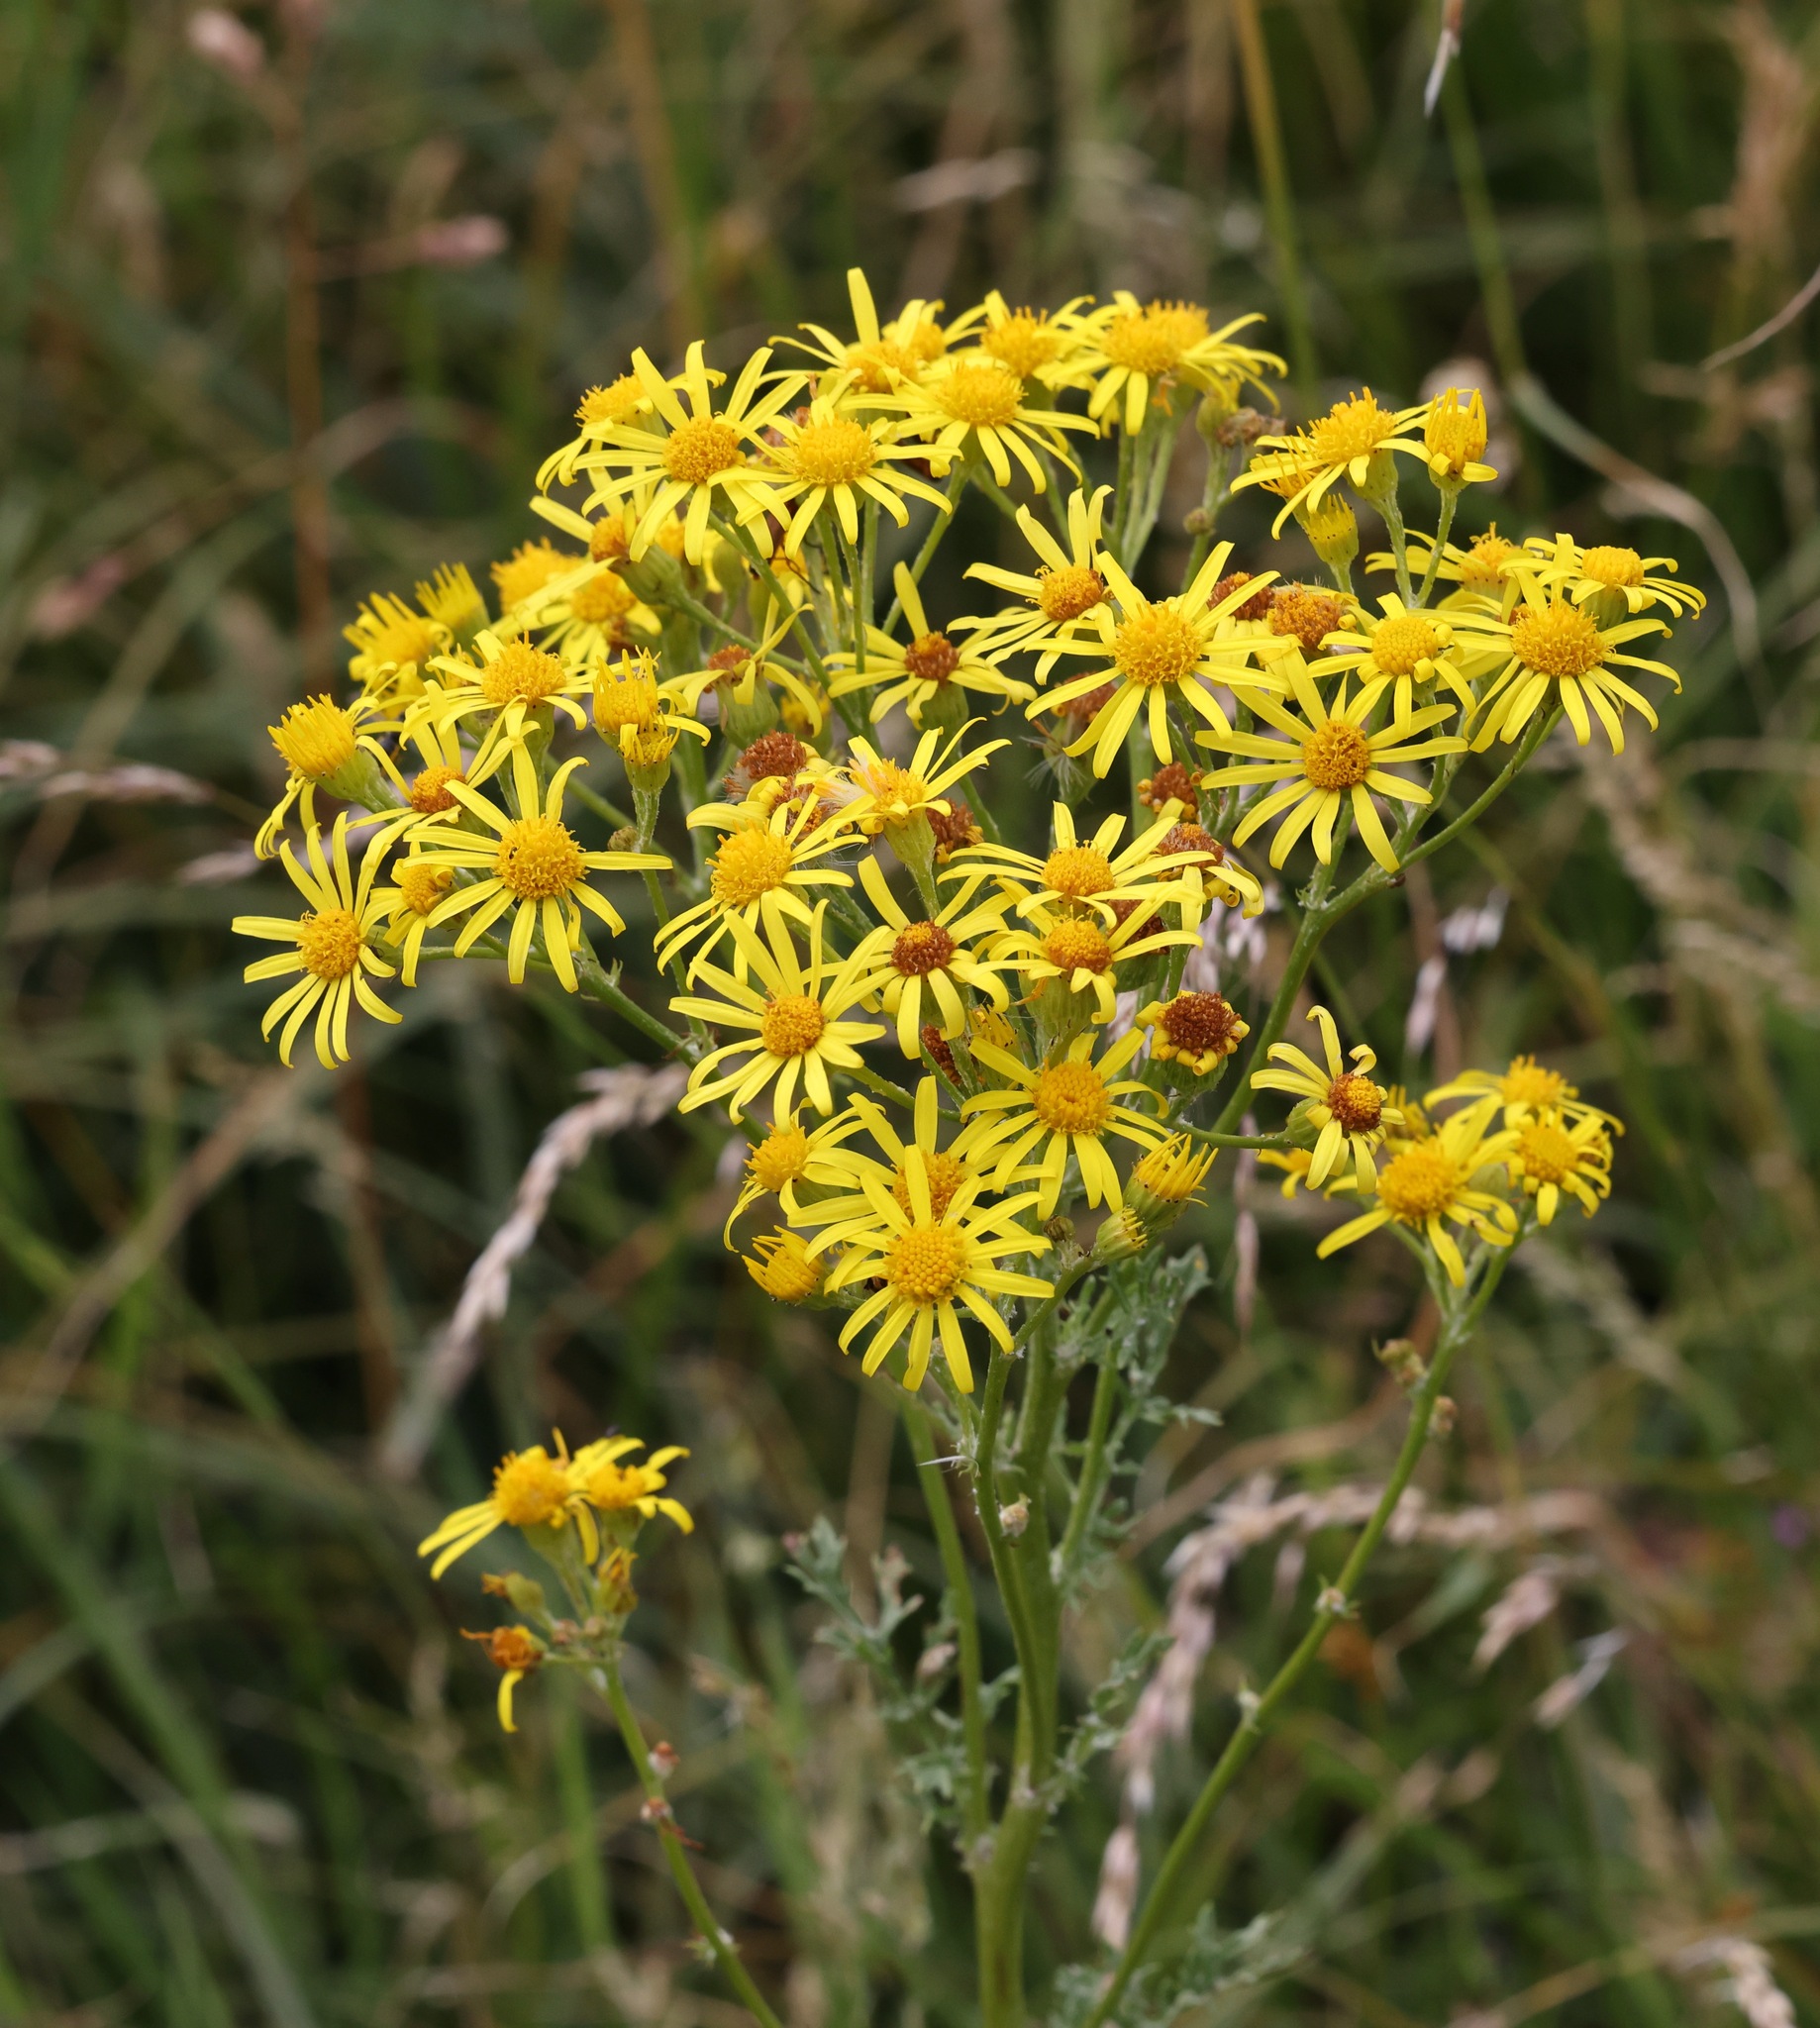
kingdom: Plantae
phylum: Tracheophyta
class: Magnoliopsida
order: Asterales
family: Asteraceae
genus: Jacobaea
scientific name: Jacobaea vulgaris
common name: Stinking willie
